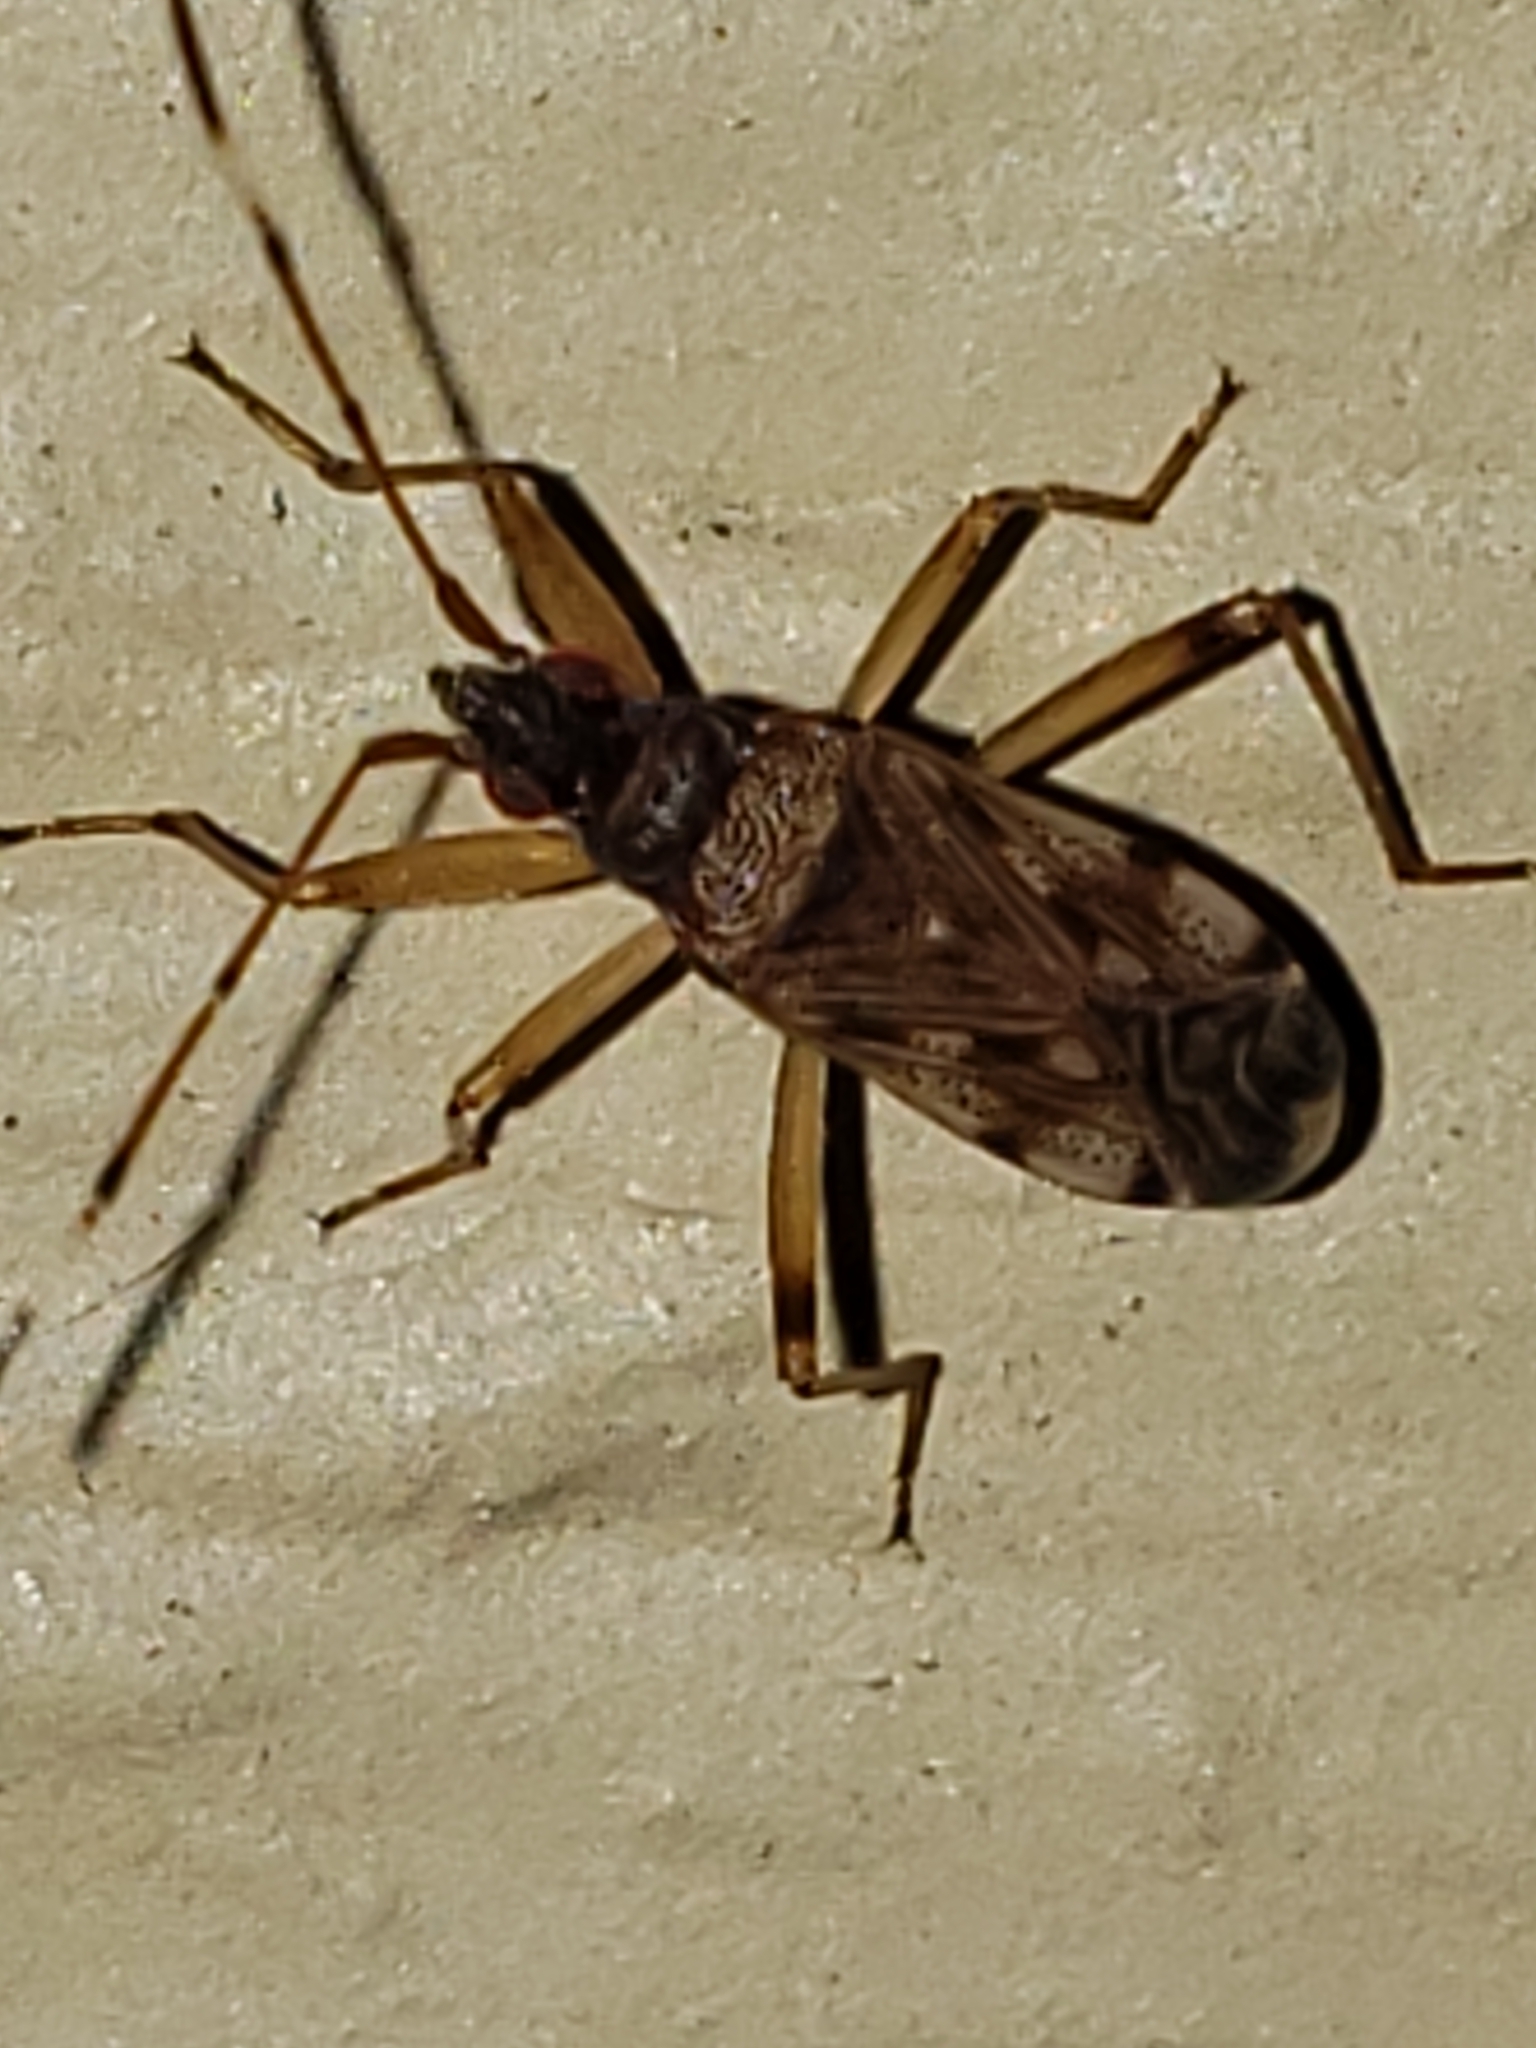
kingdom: Animalia
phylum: Arthropoda
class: Insecta
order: Hemiptera
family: Rhyparochromidae
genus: Ozophora
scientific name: Ozophora picturata
